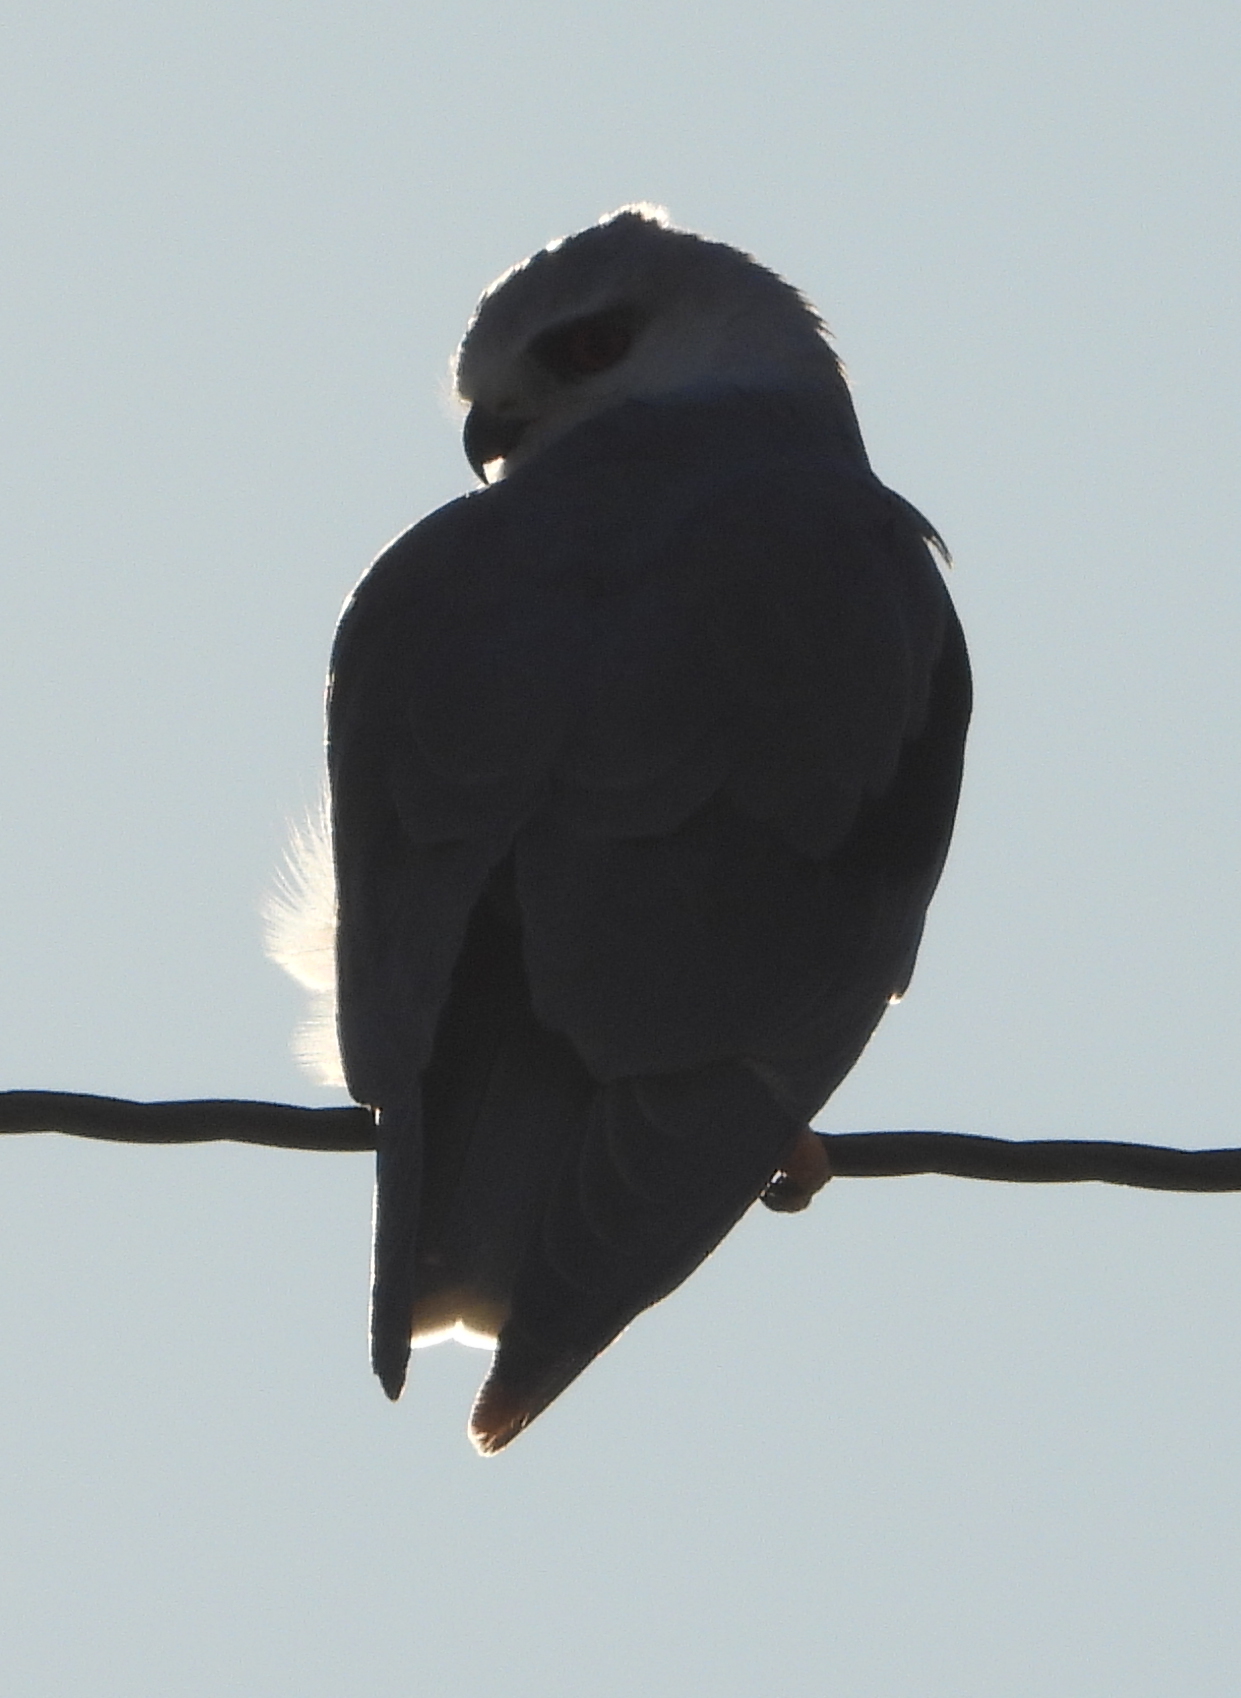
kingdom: Animalia
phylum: Chordata
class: Aves
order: Accipitriformes
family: Accipitridae
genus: Elanus
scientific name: Elanus caeruleus
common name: Black-winged kite
